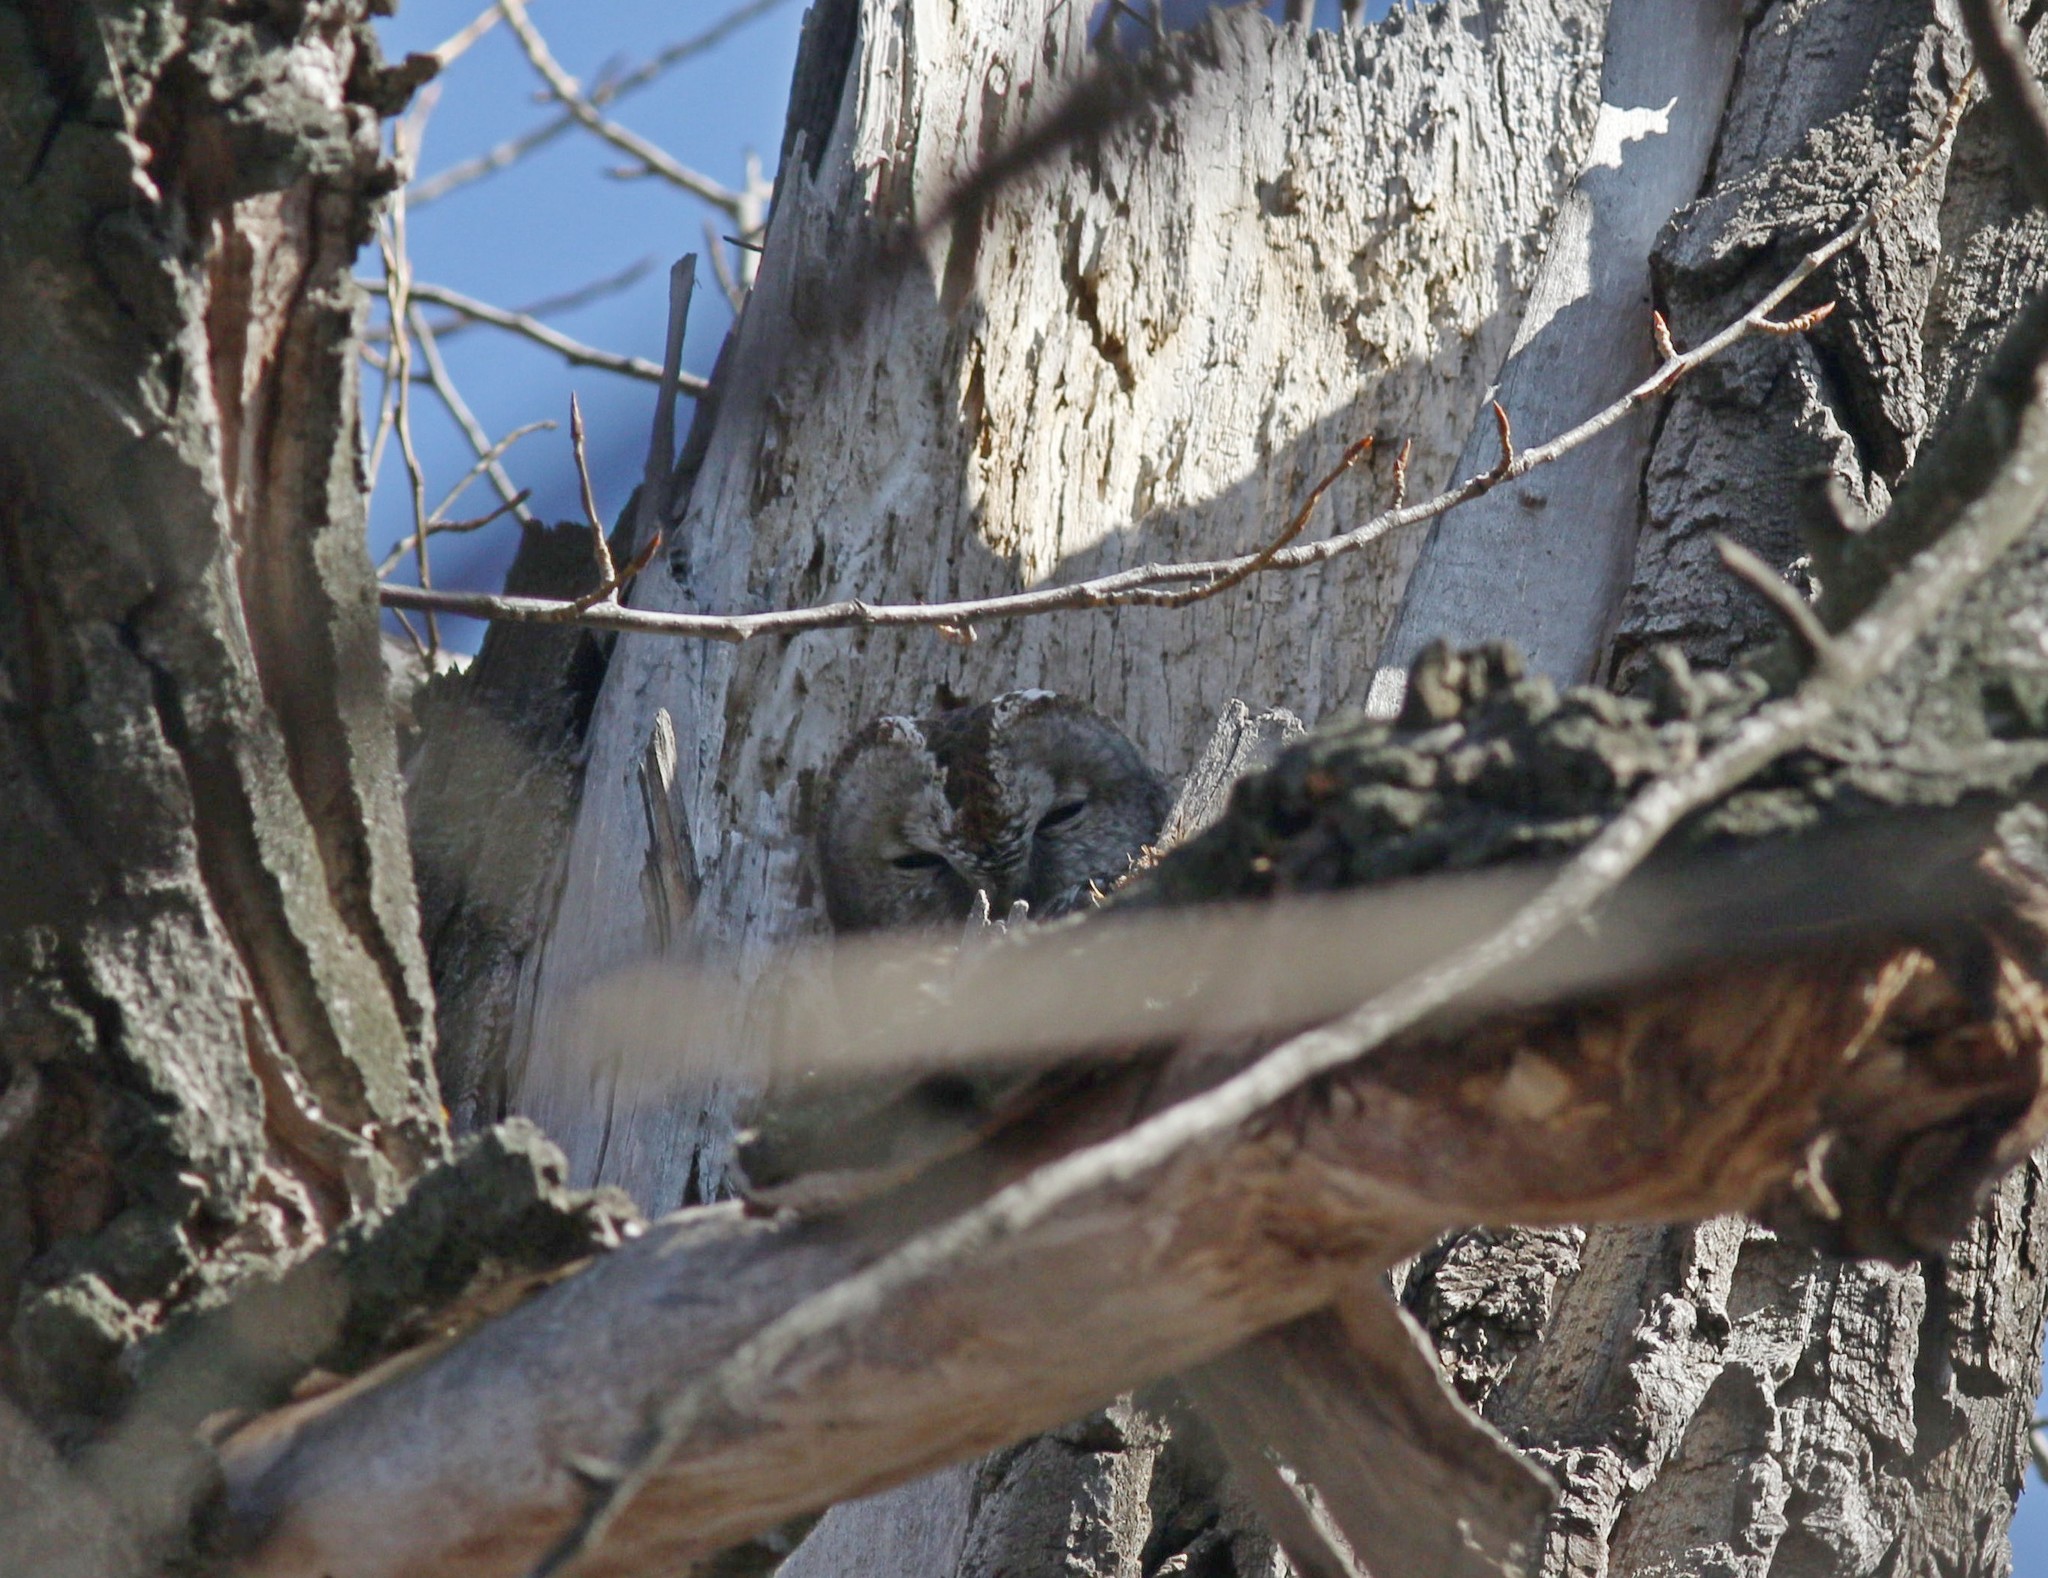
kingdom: Animalia
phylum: Chordata
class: Aves
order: Strigiformes
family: Strigidae
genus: Strix
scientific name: Strix aluco
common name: Tawny owl
